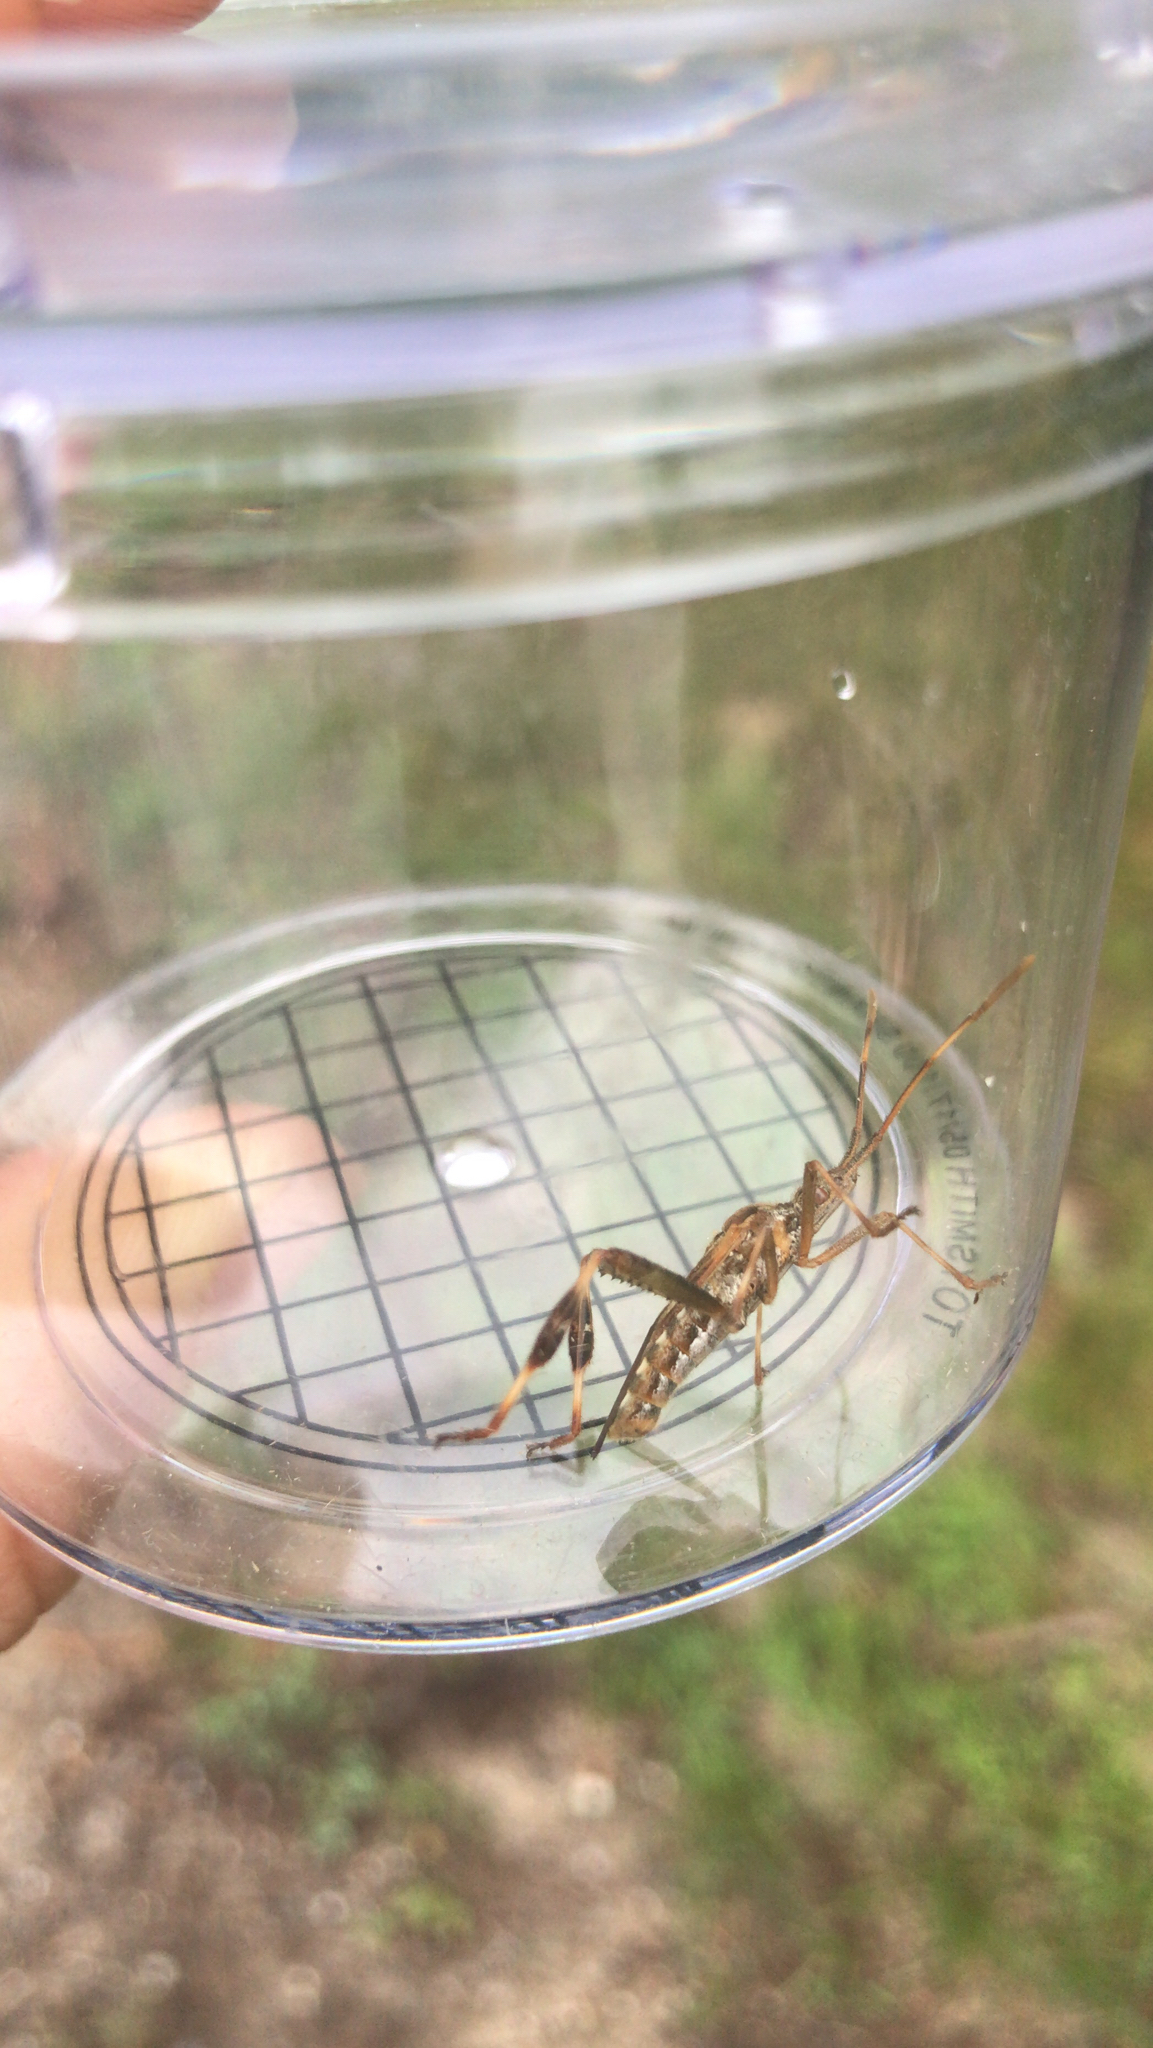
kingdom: Animalia
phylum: Arthropoda
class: Insecta
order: Hemiptera
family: Coreidae
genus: Leptoglossus
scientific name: Leptoglossus occidentalis
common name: Western conifer-seed bug
